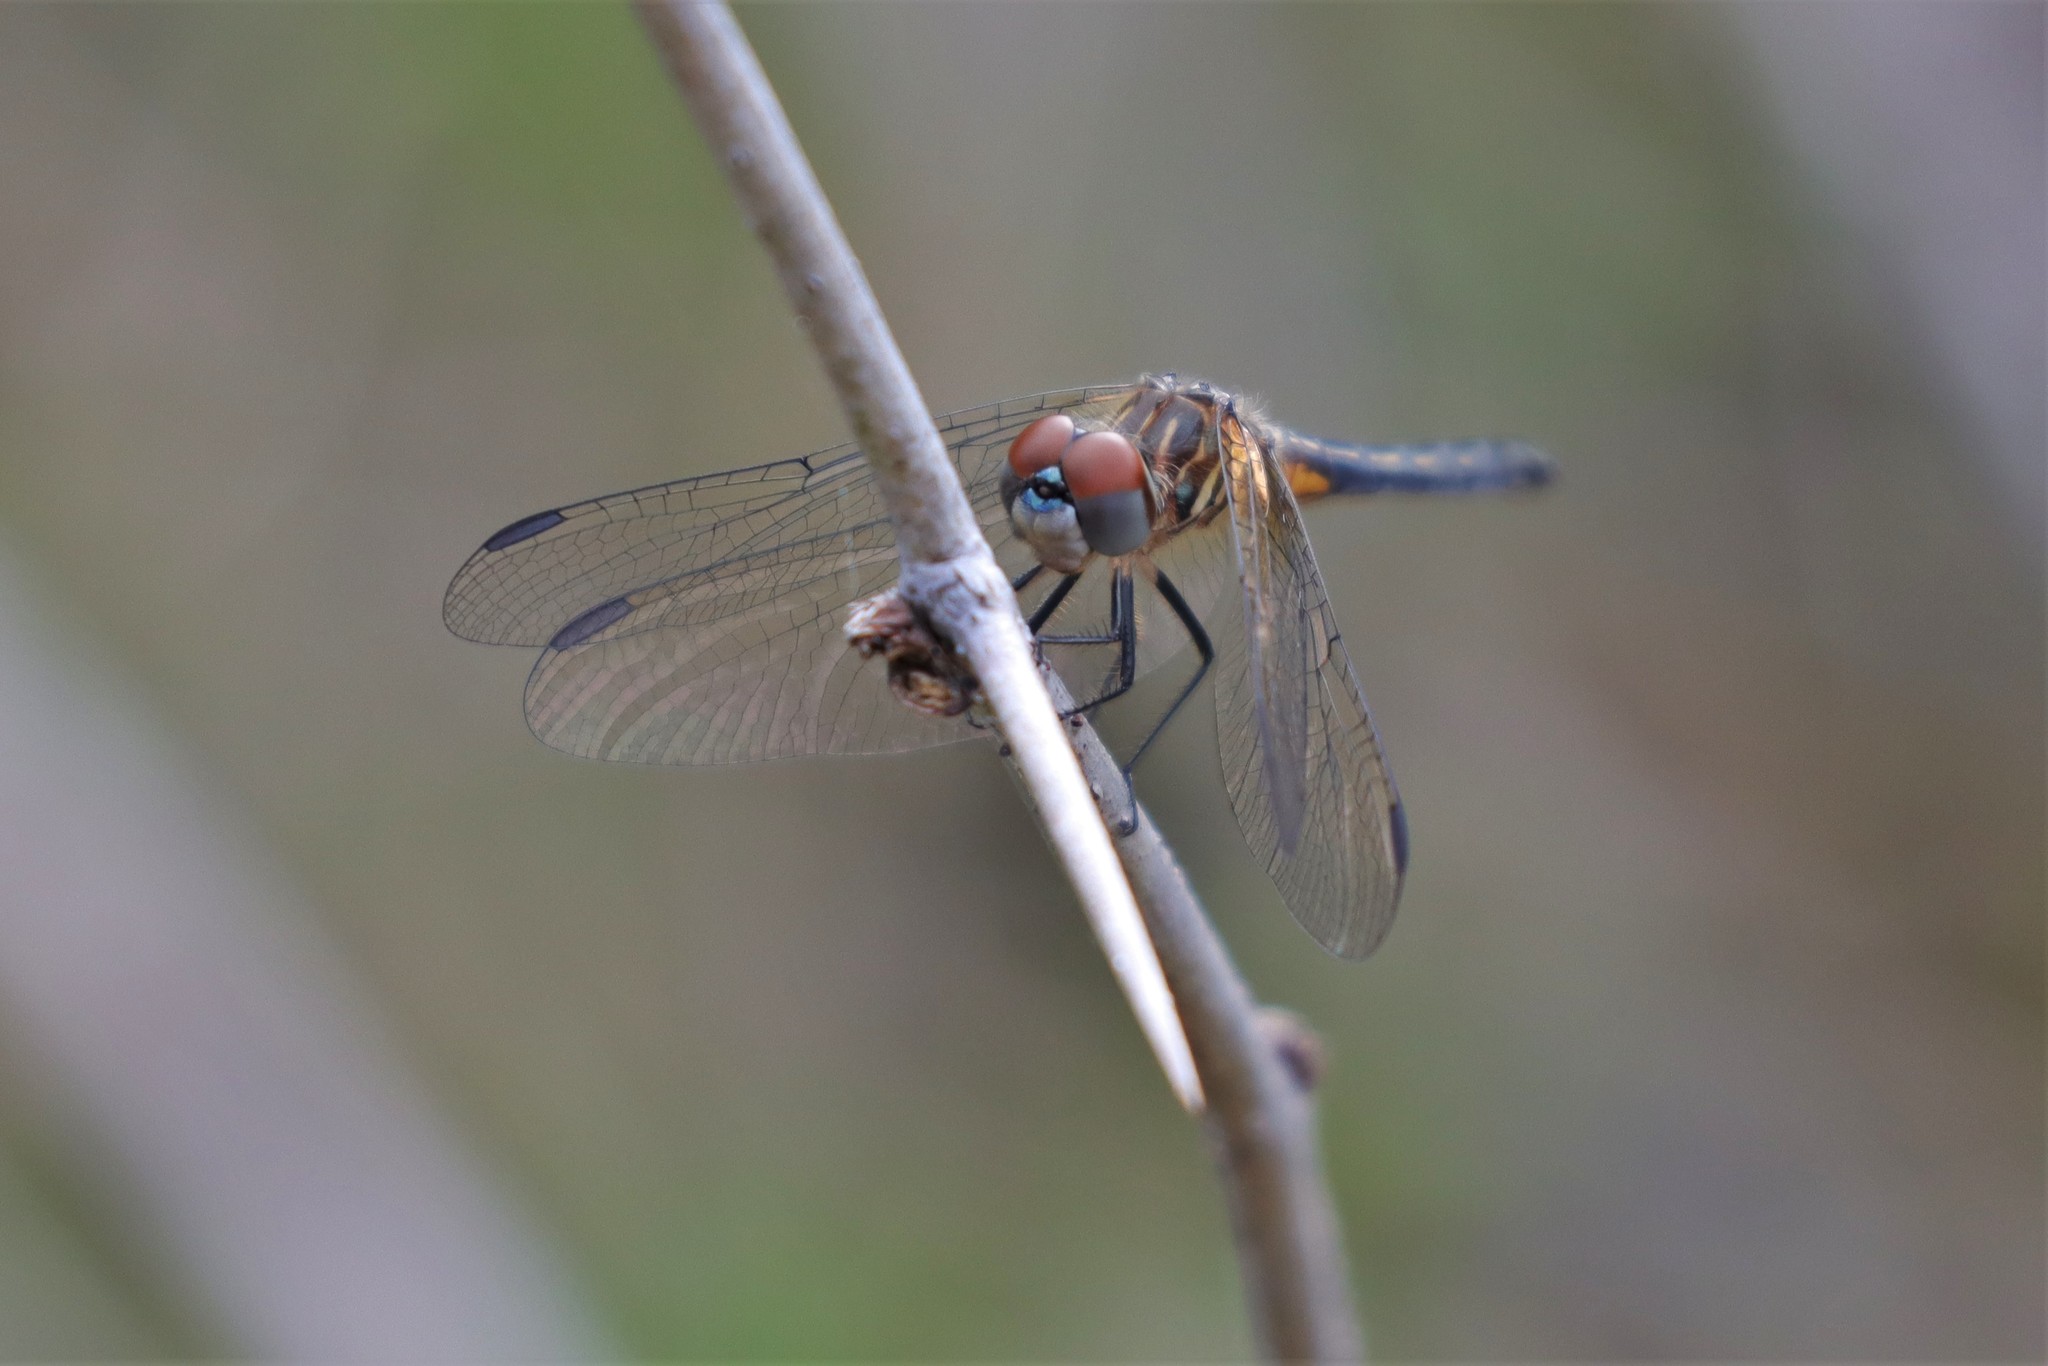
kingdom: Animalia
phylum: Arthropoda
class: Insecta
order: Odonata
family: Libellulidae
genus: Pachydiplax
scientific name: Pachydiplax longipennis
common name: Blue dasher
